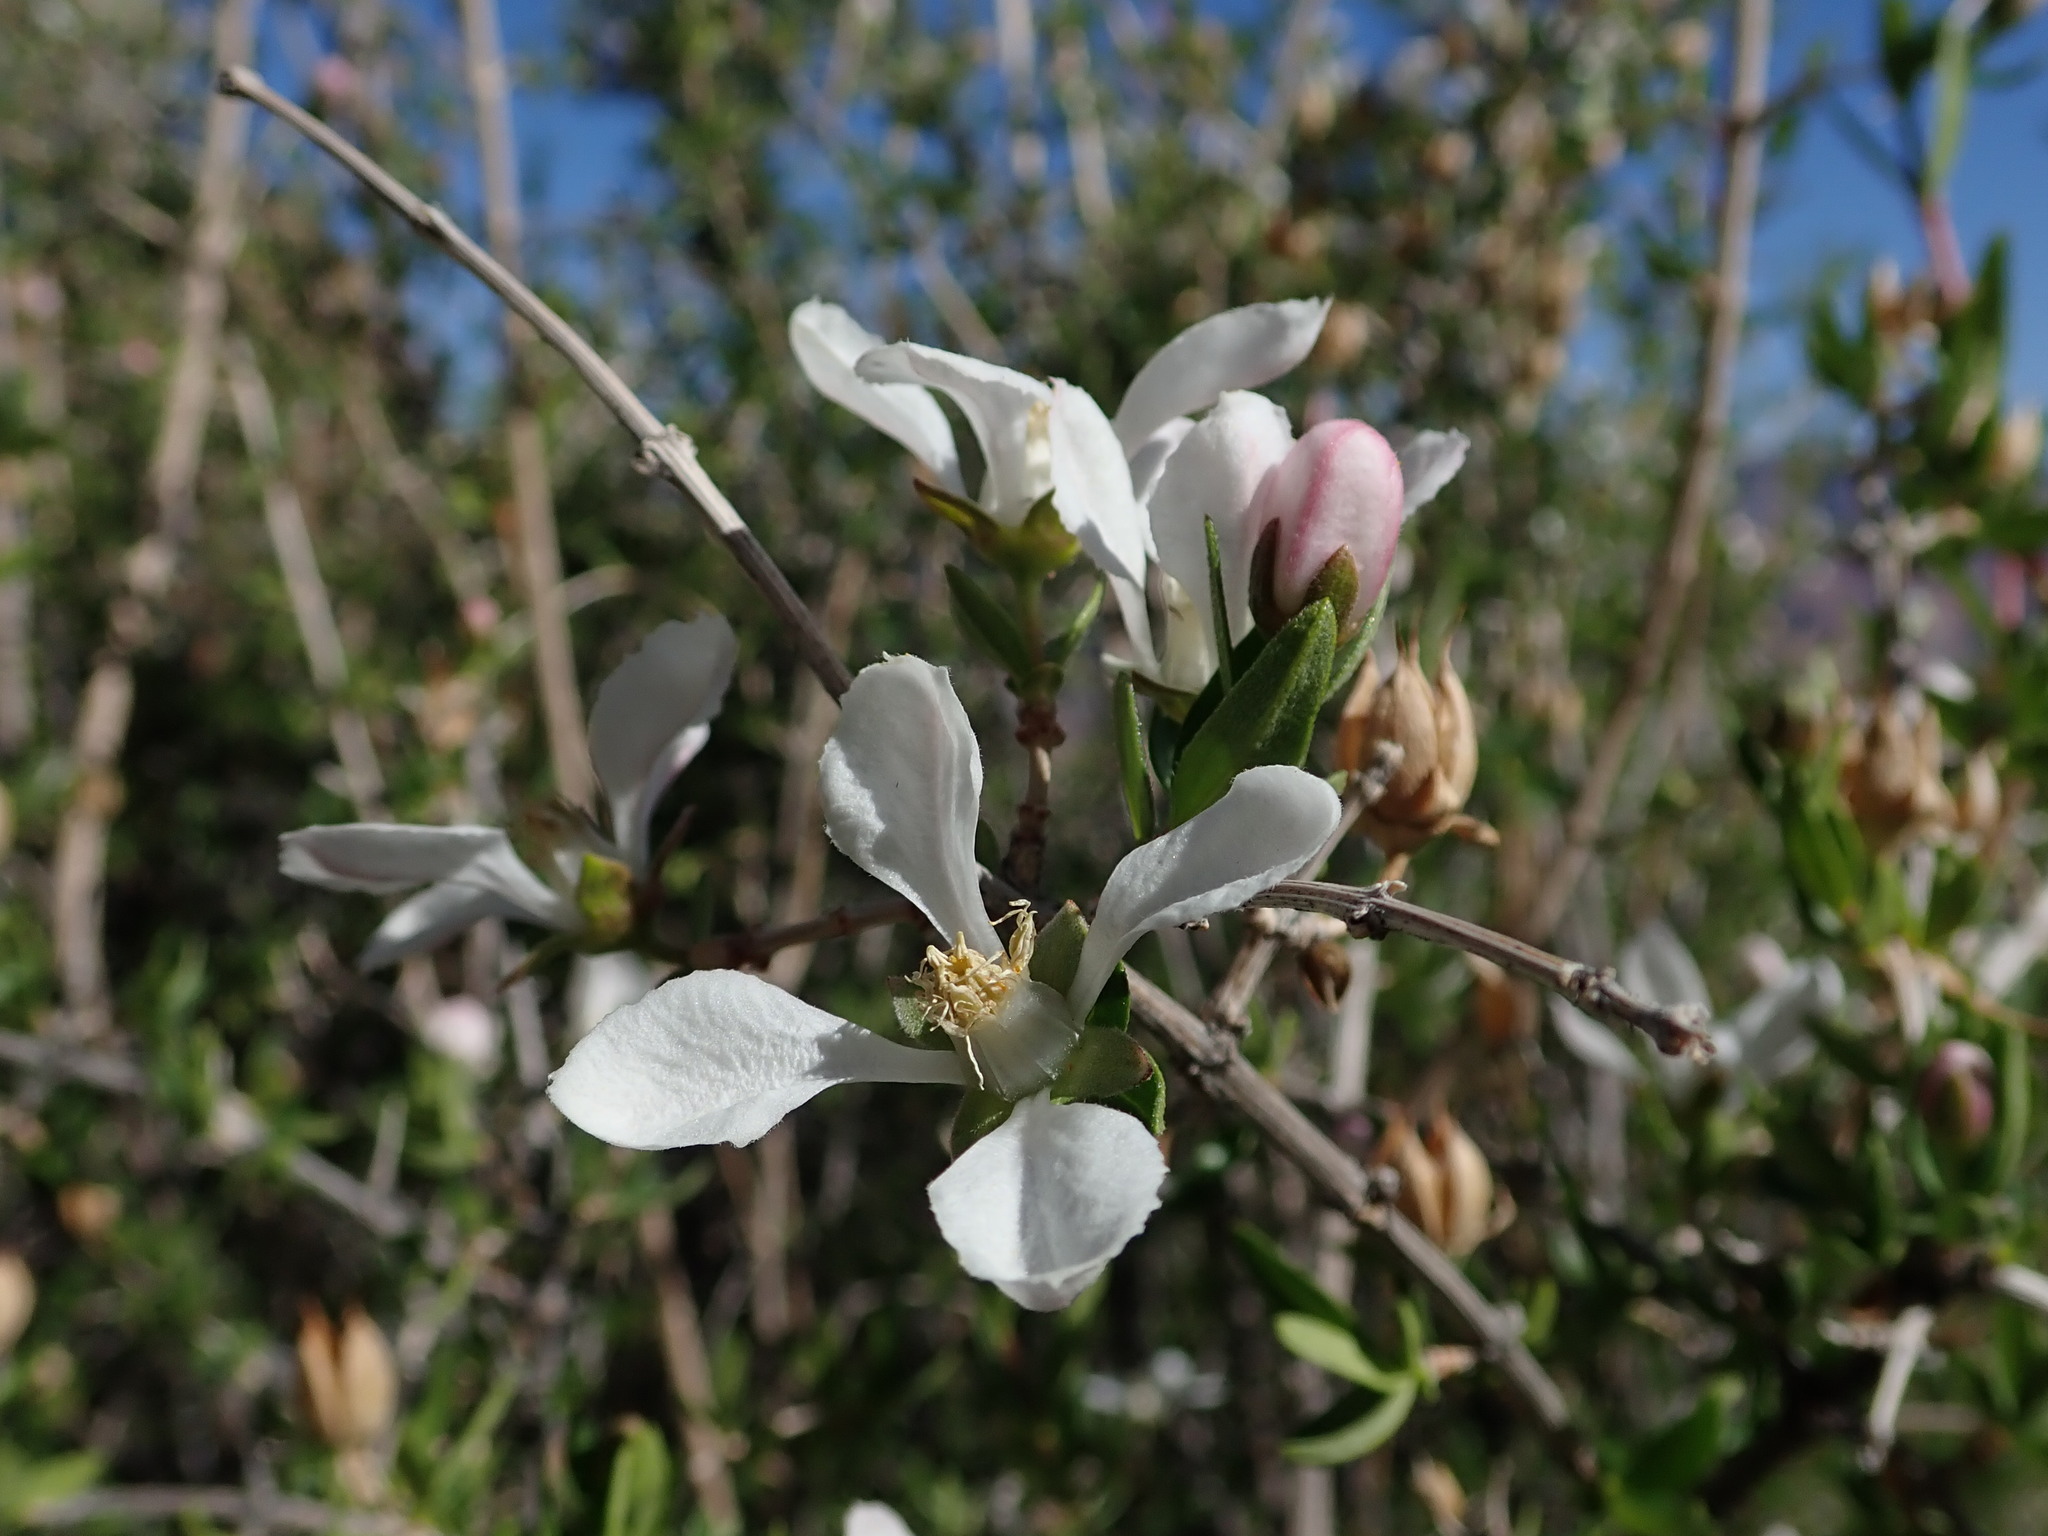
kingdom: Plantae
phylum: Tracheophyta
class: Magnoliopsida
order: Cornales
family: Hydrangeaceae
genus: Fendlera
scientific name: Fendlera rupicola
